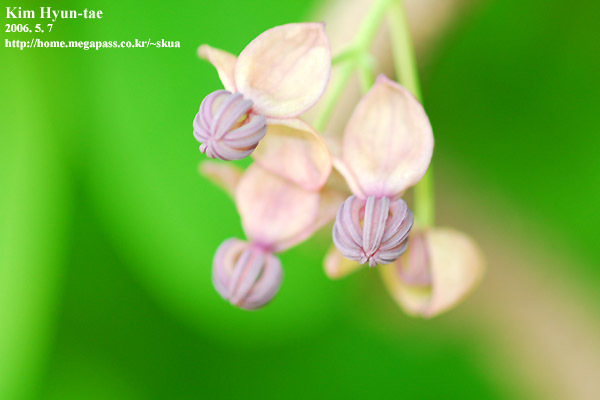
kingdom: Plantae
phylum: Tracheophyta
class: Magnoliopsida
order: Ranunculales
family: Lardizabalaceae
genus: Akebia
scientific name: Akebia quinata
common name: Five-leaf akebia
